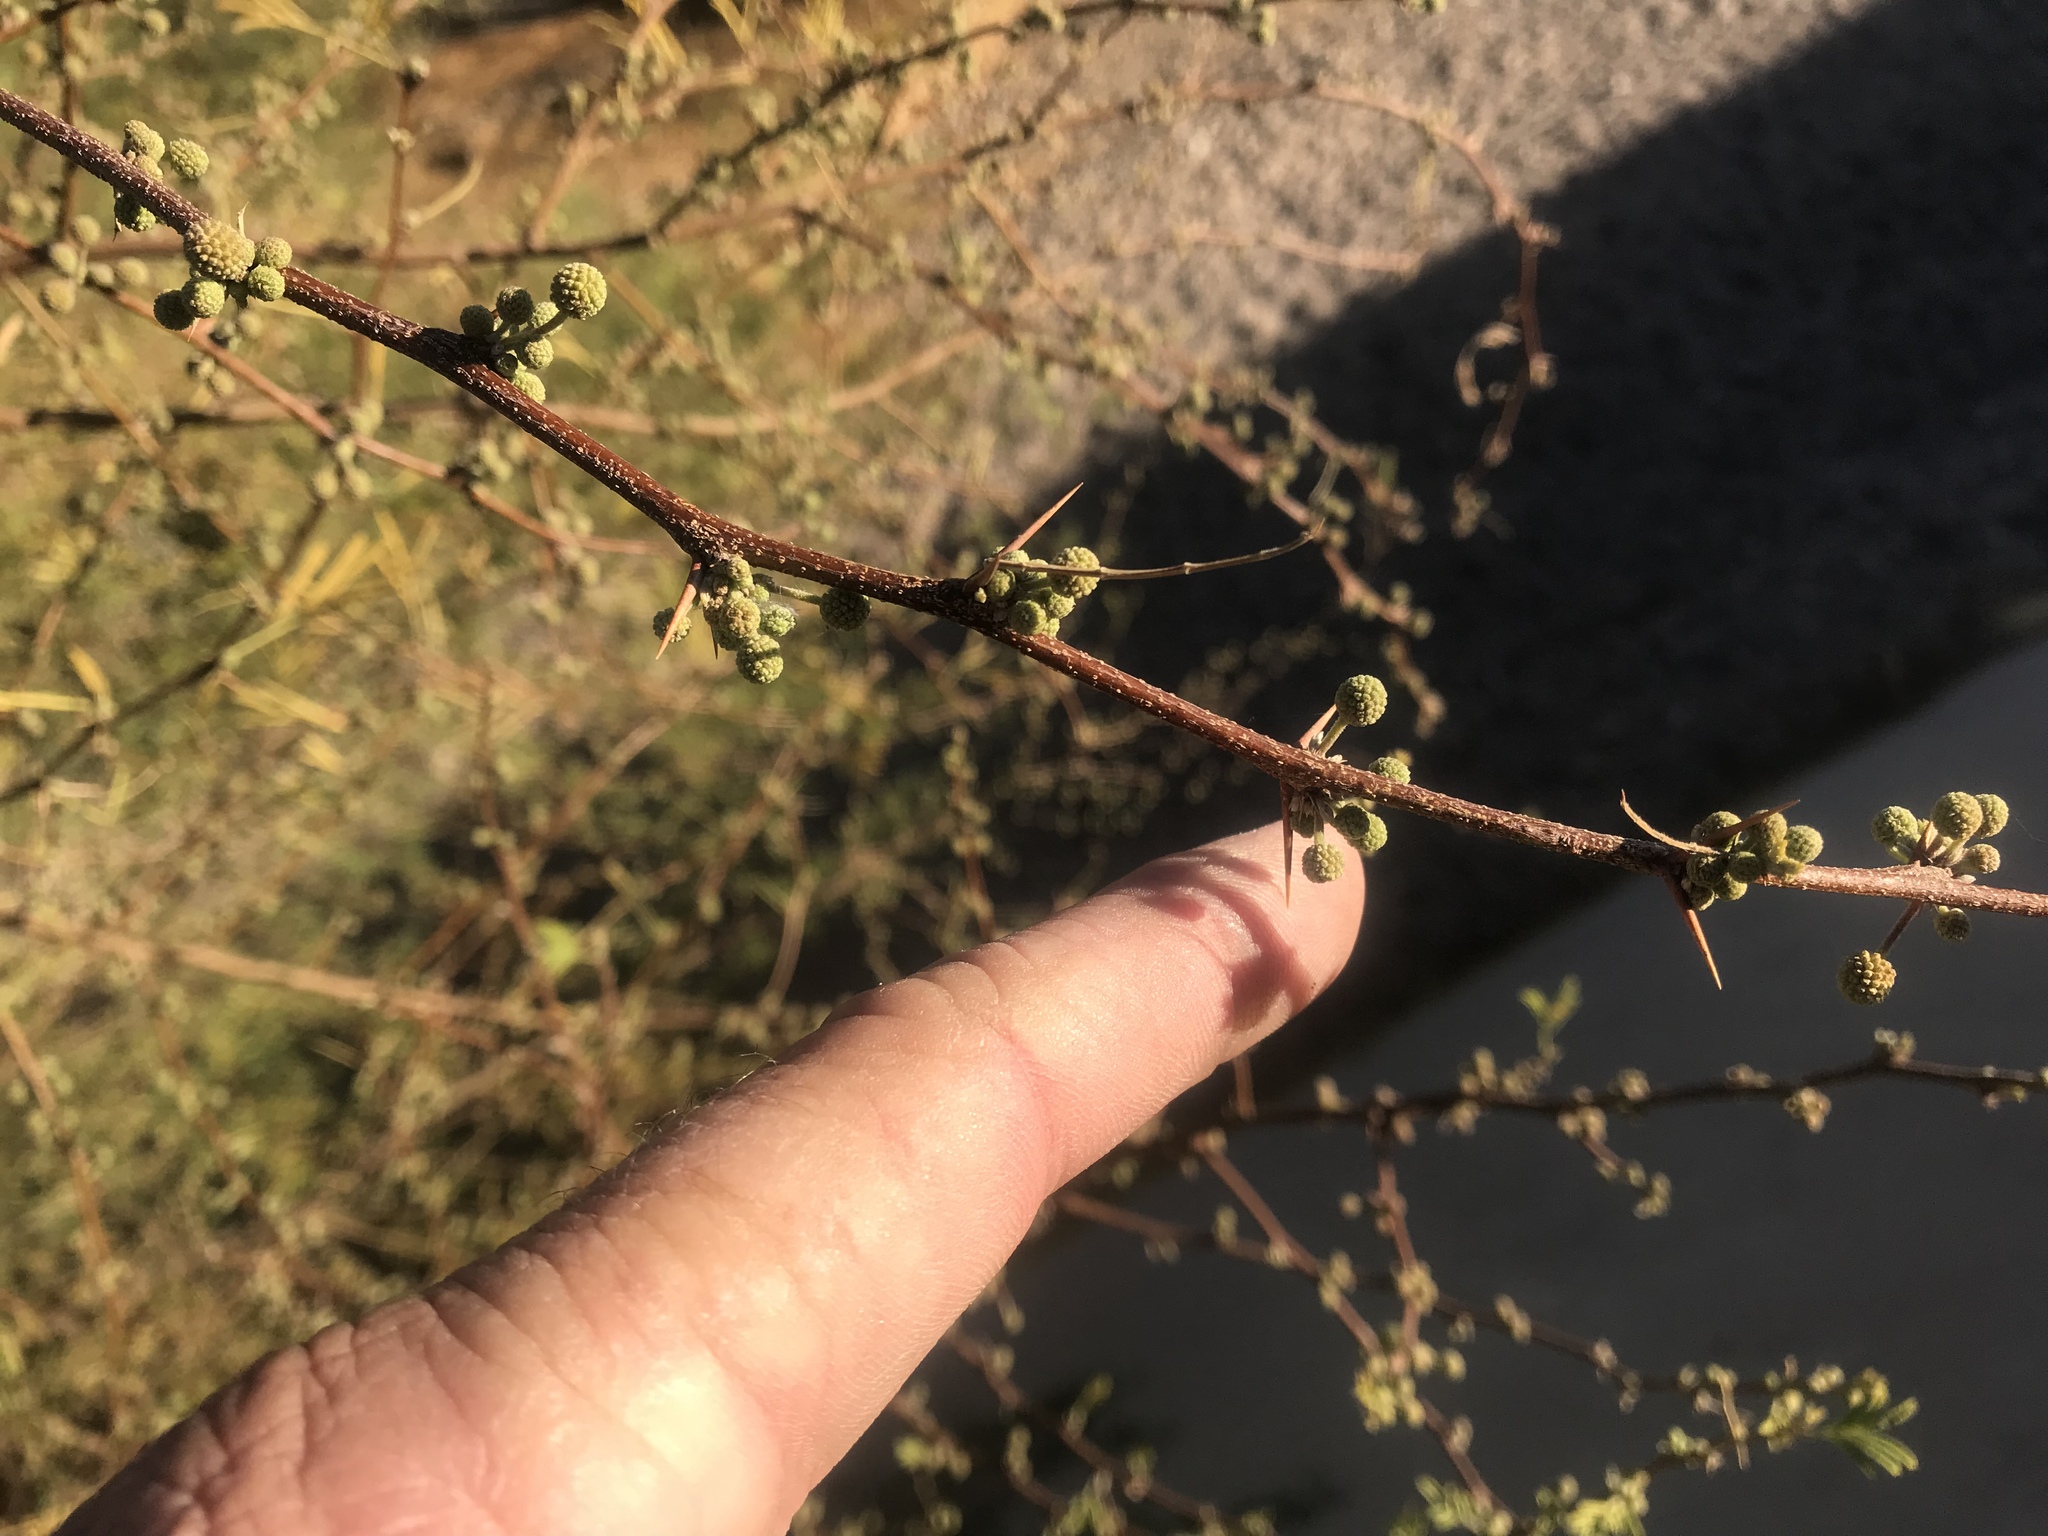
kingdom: Plantae
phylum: Tracheophyta
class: Magnoliopsida
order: Fabales
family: Fabaceae
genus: Vachellia
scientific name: Vachellia farnesiana
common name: Sweet acacia
